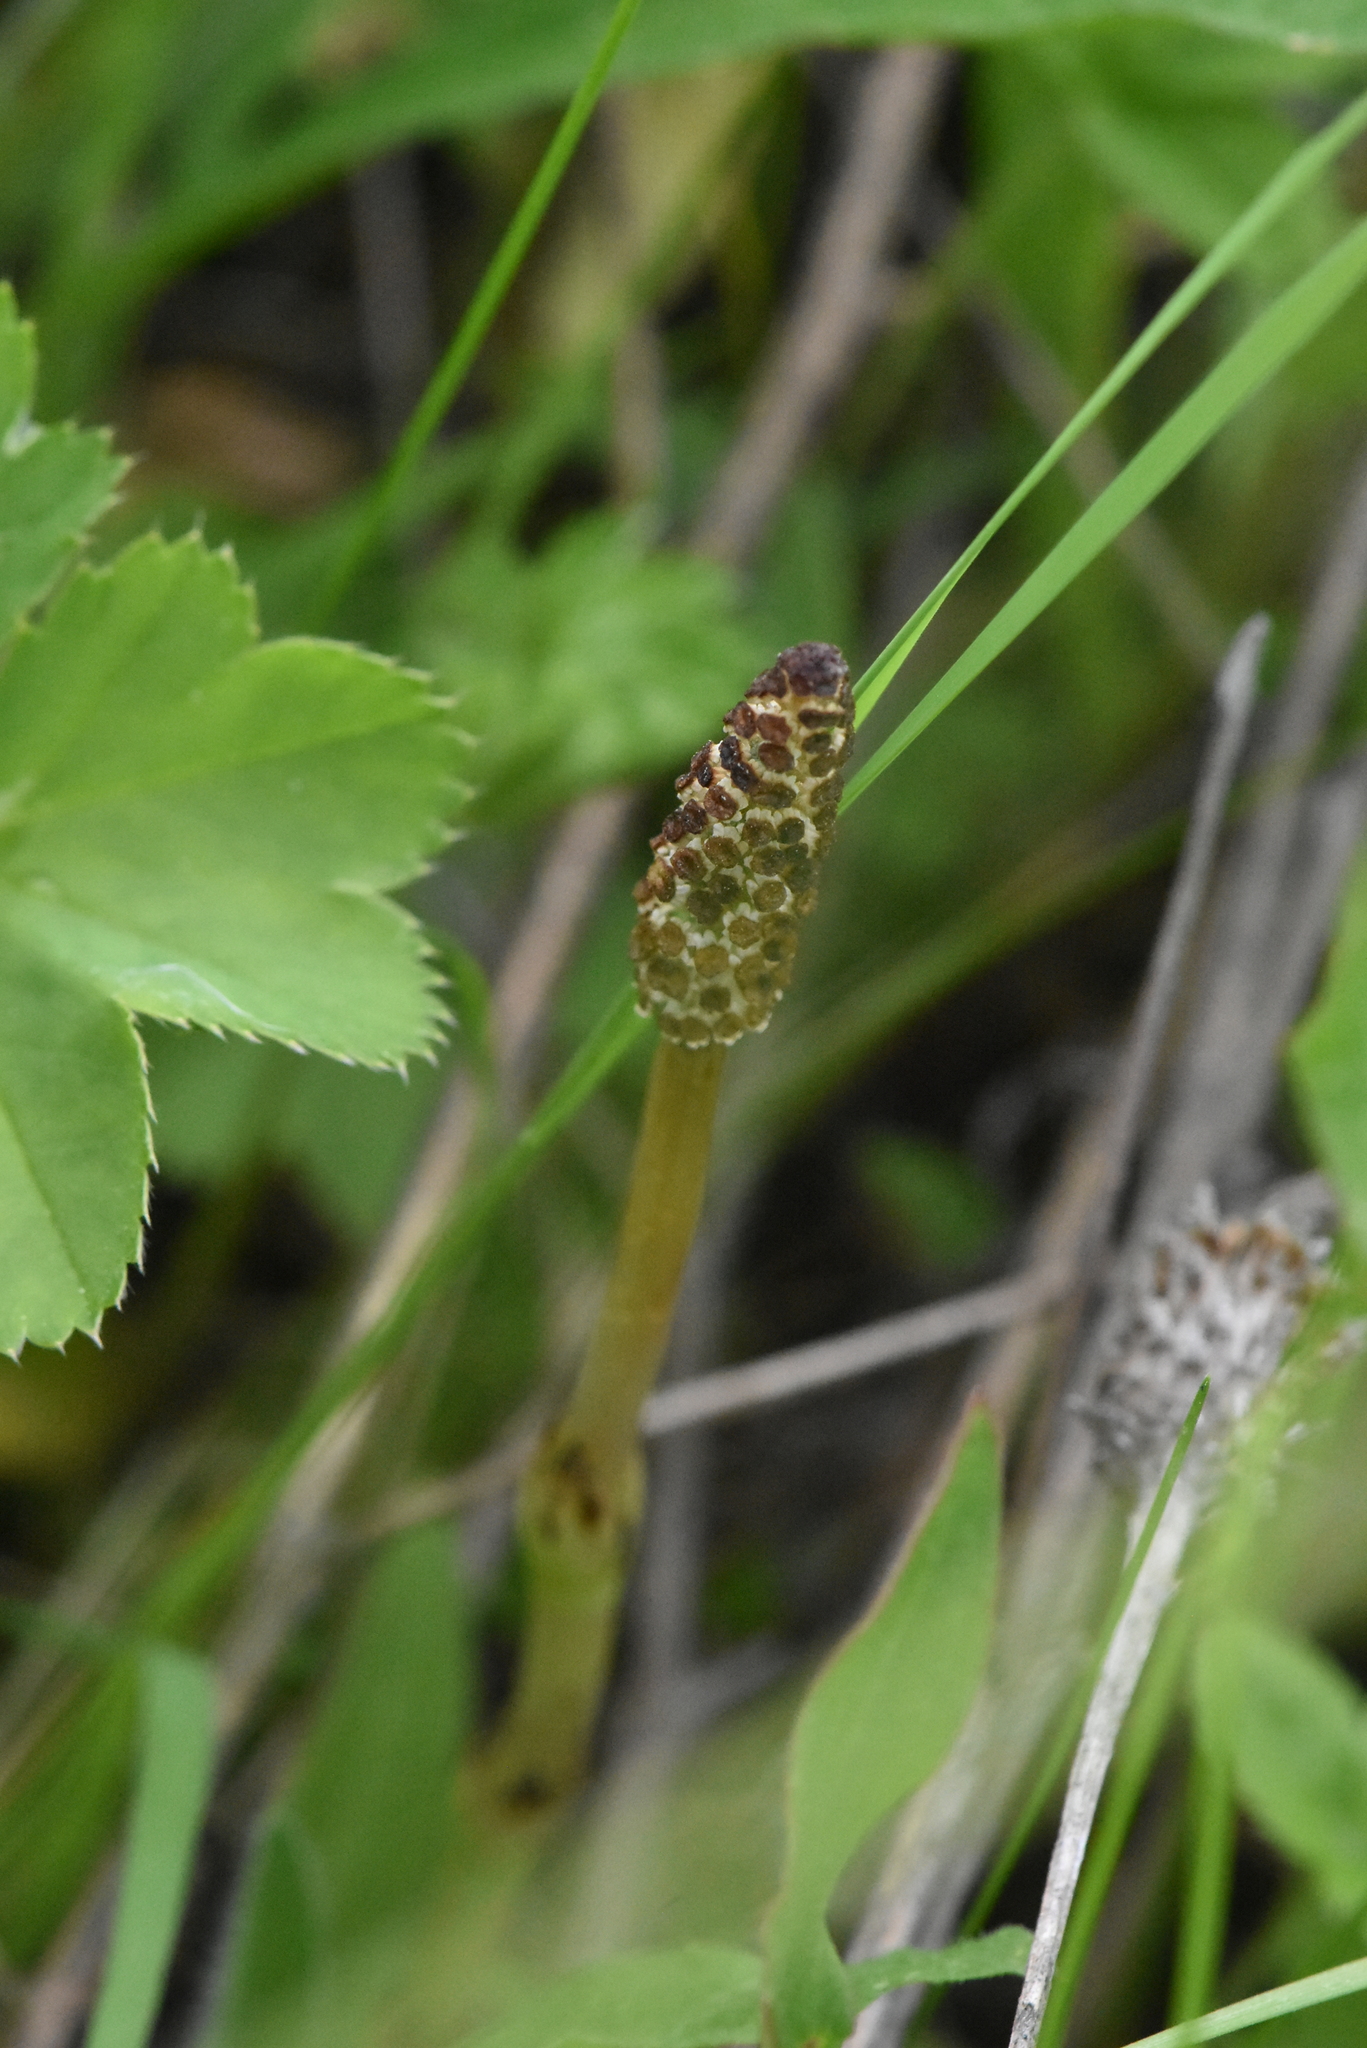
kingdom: Plantae
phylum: Tracheophyta
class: Polypodiopsida
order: Equisetales
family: Equisetaceae
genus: Equisetum
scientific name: Equisetum arvense
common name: Field horsetail
